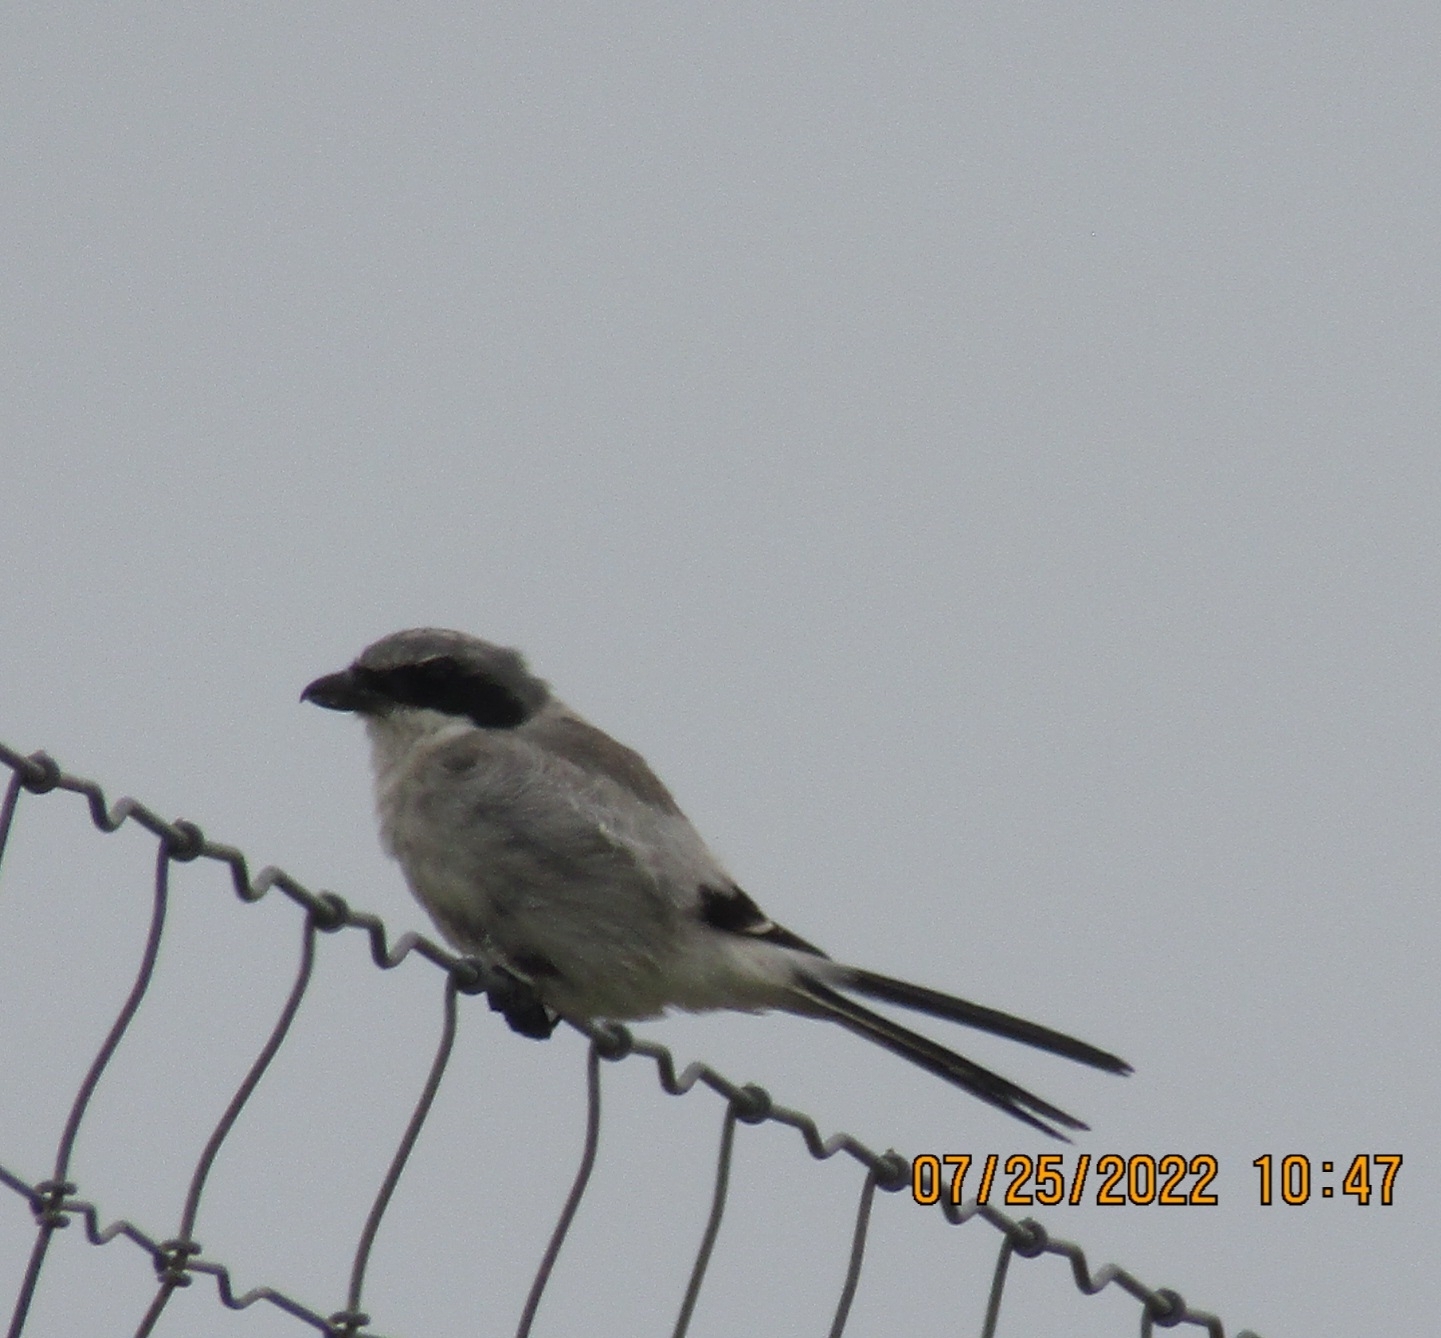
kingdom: Animalia
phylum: Chordata
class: Aves
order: Passeriformes
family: Laniidae
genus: Lanius
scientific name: Lanius ludovicianus
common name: Loggerhead shrike
